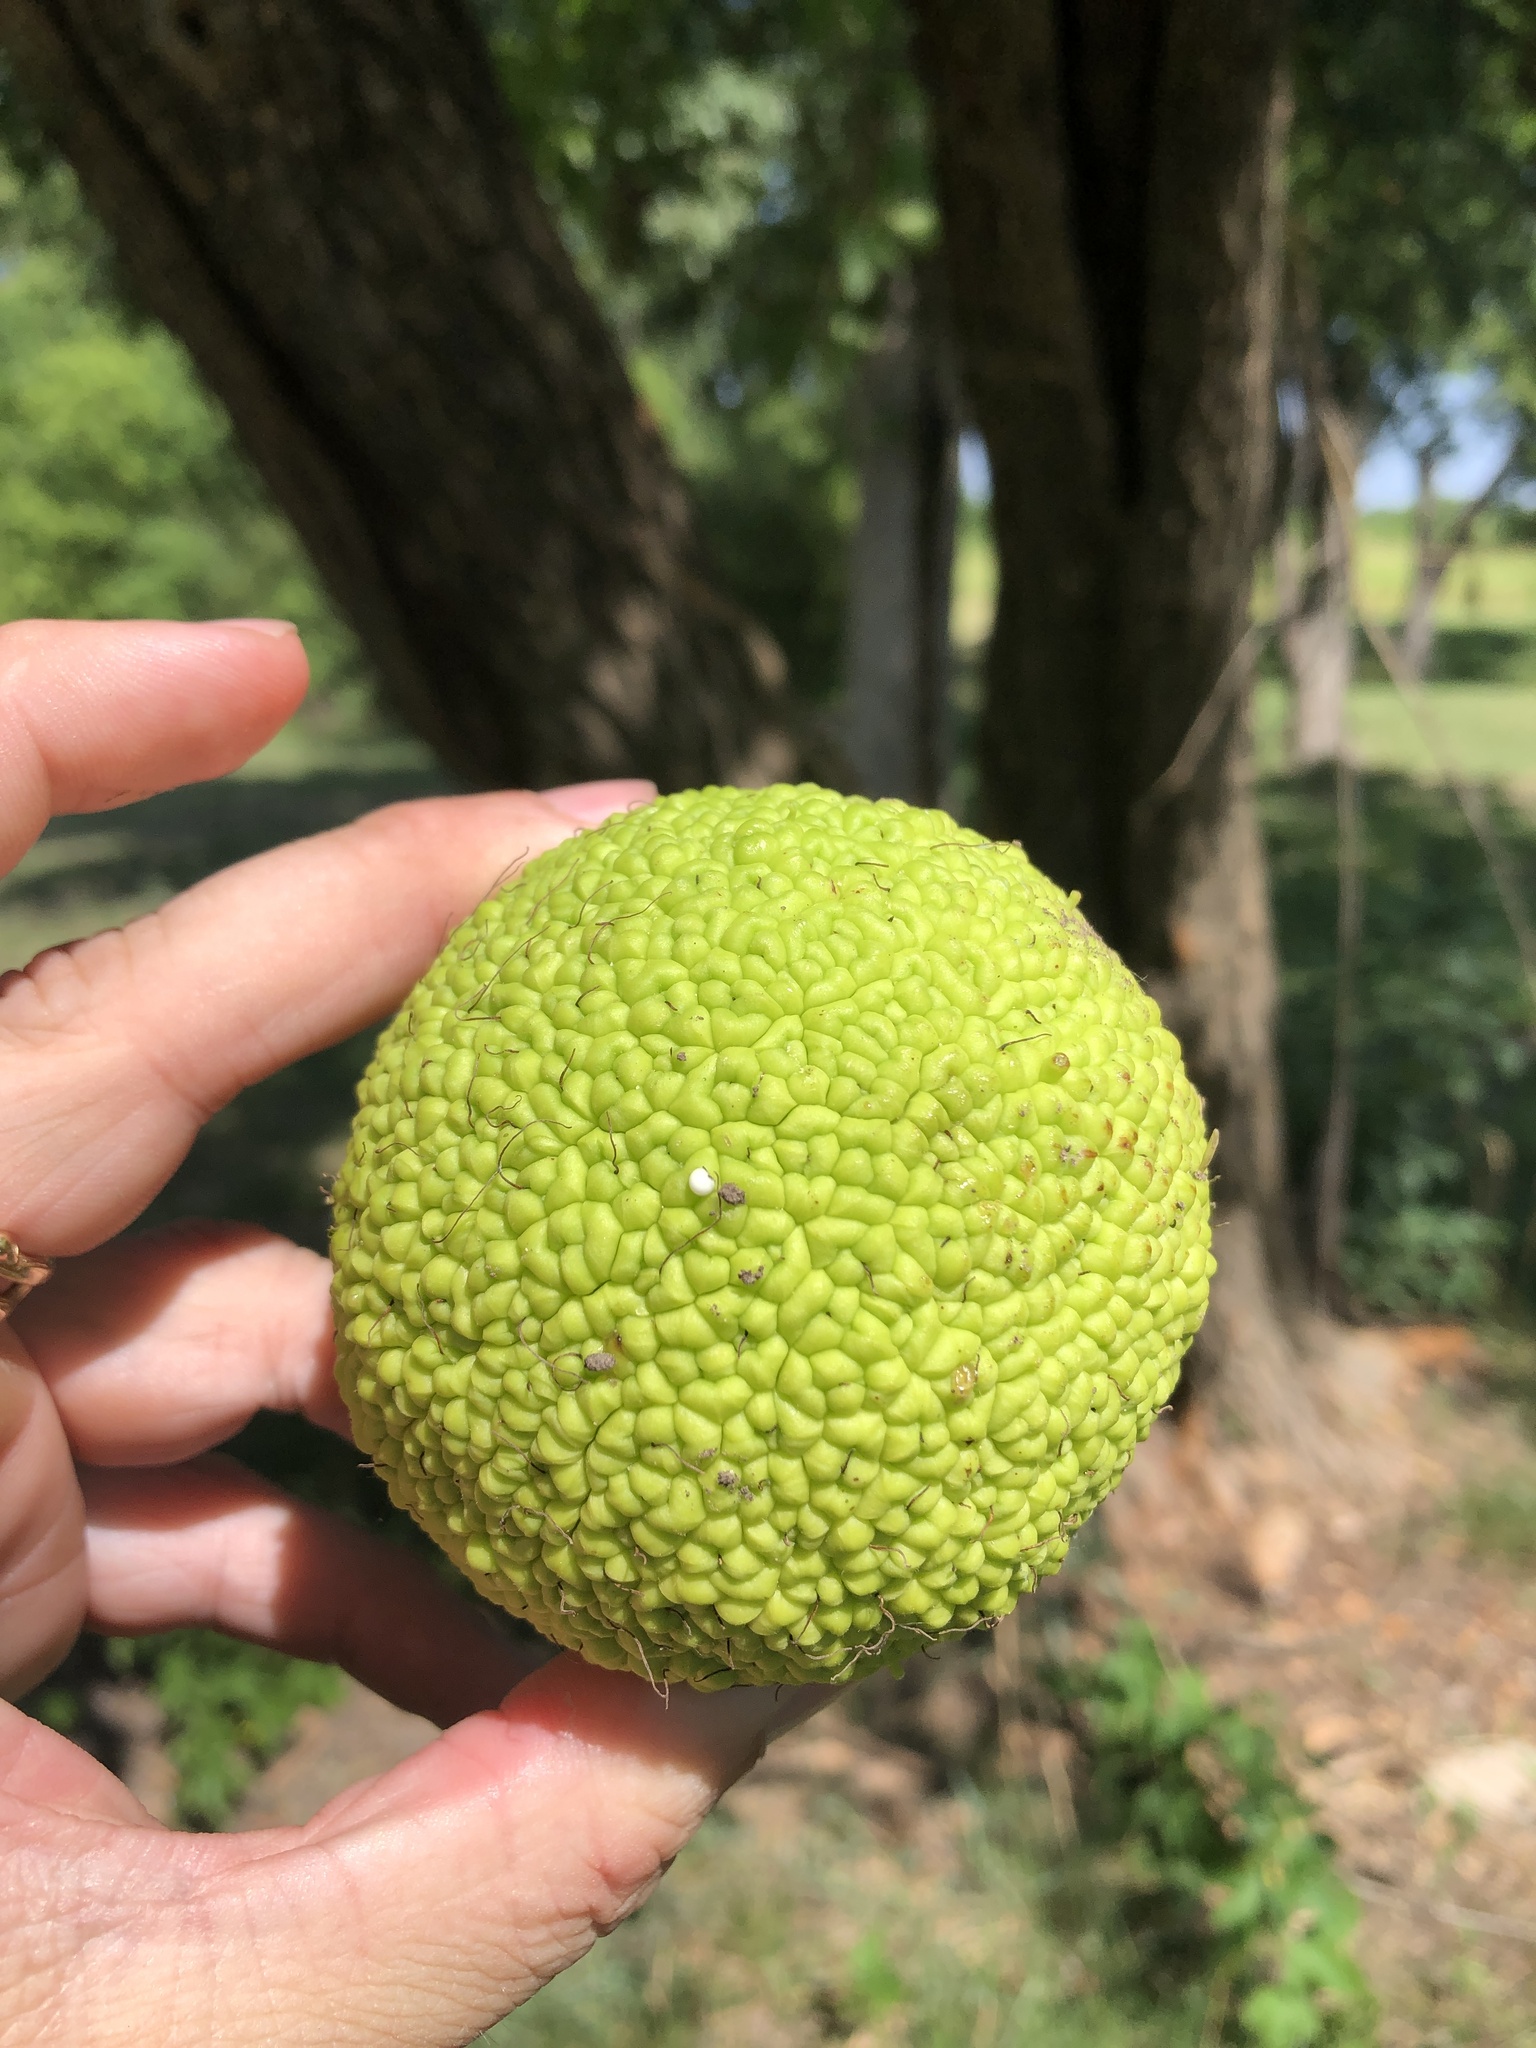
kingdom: Plantae
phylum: Tracheophyta
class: Magnoliopsida
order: Rosales
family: Moraceae
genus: Maclura
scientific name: Maclura pomifera
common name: Osage-orange
